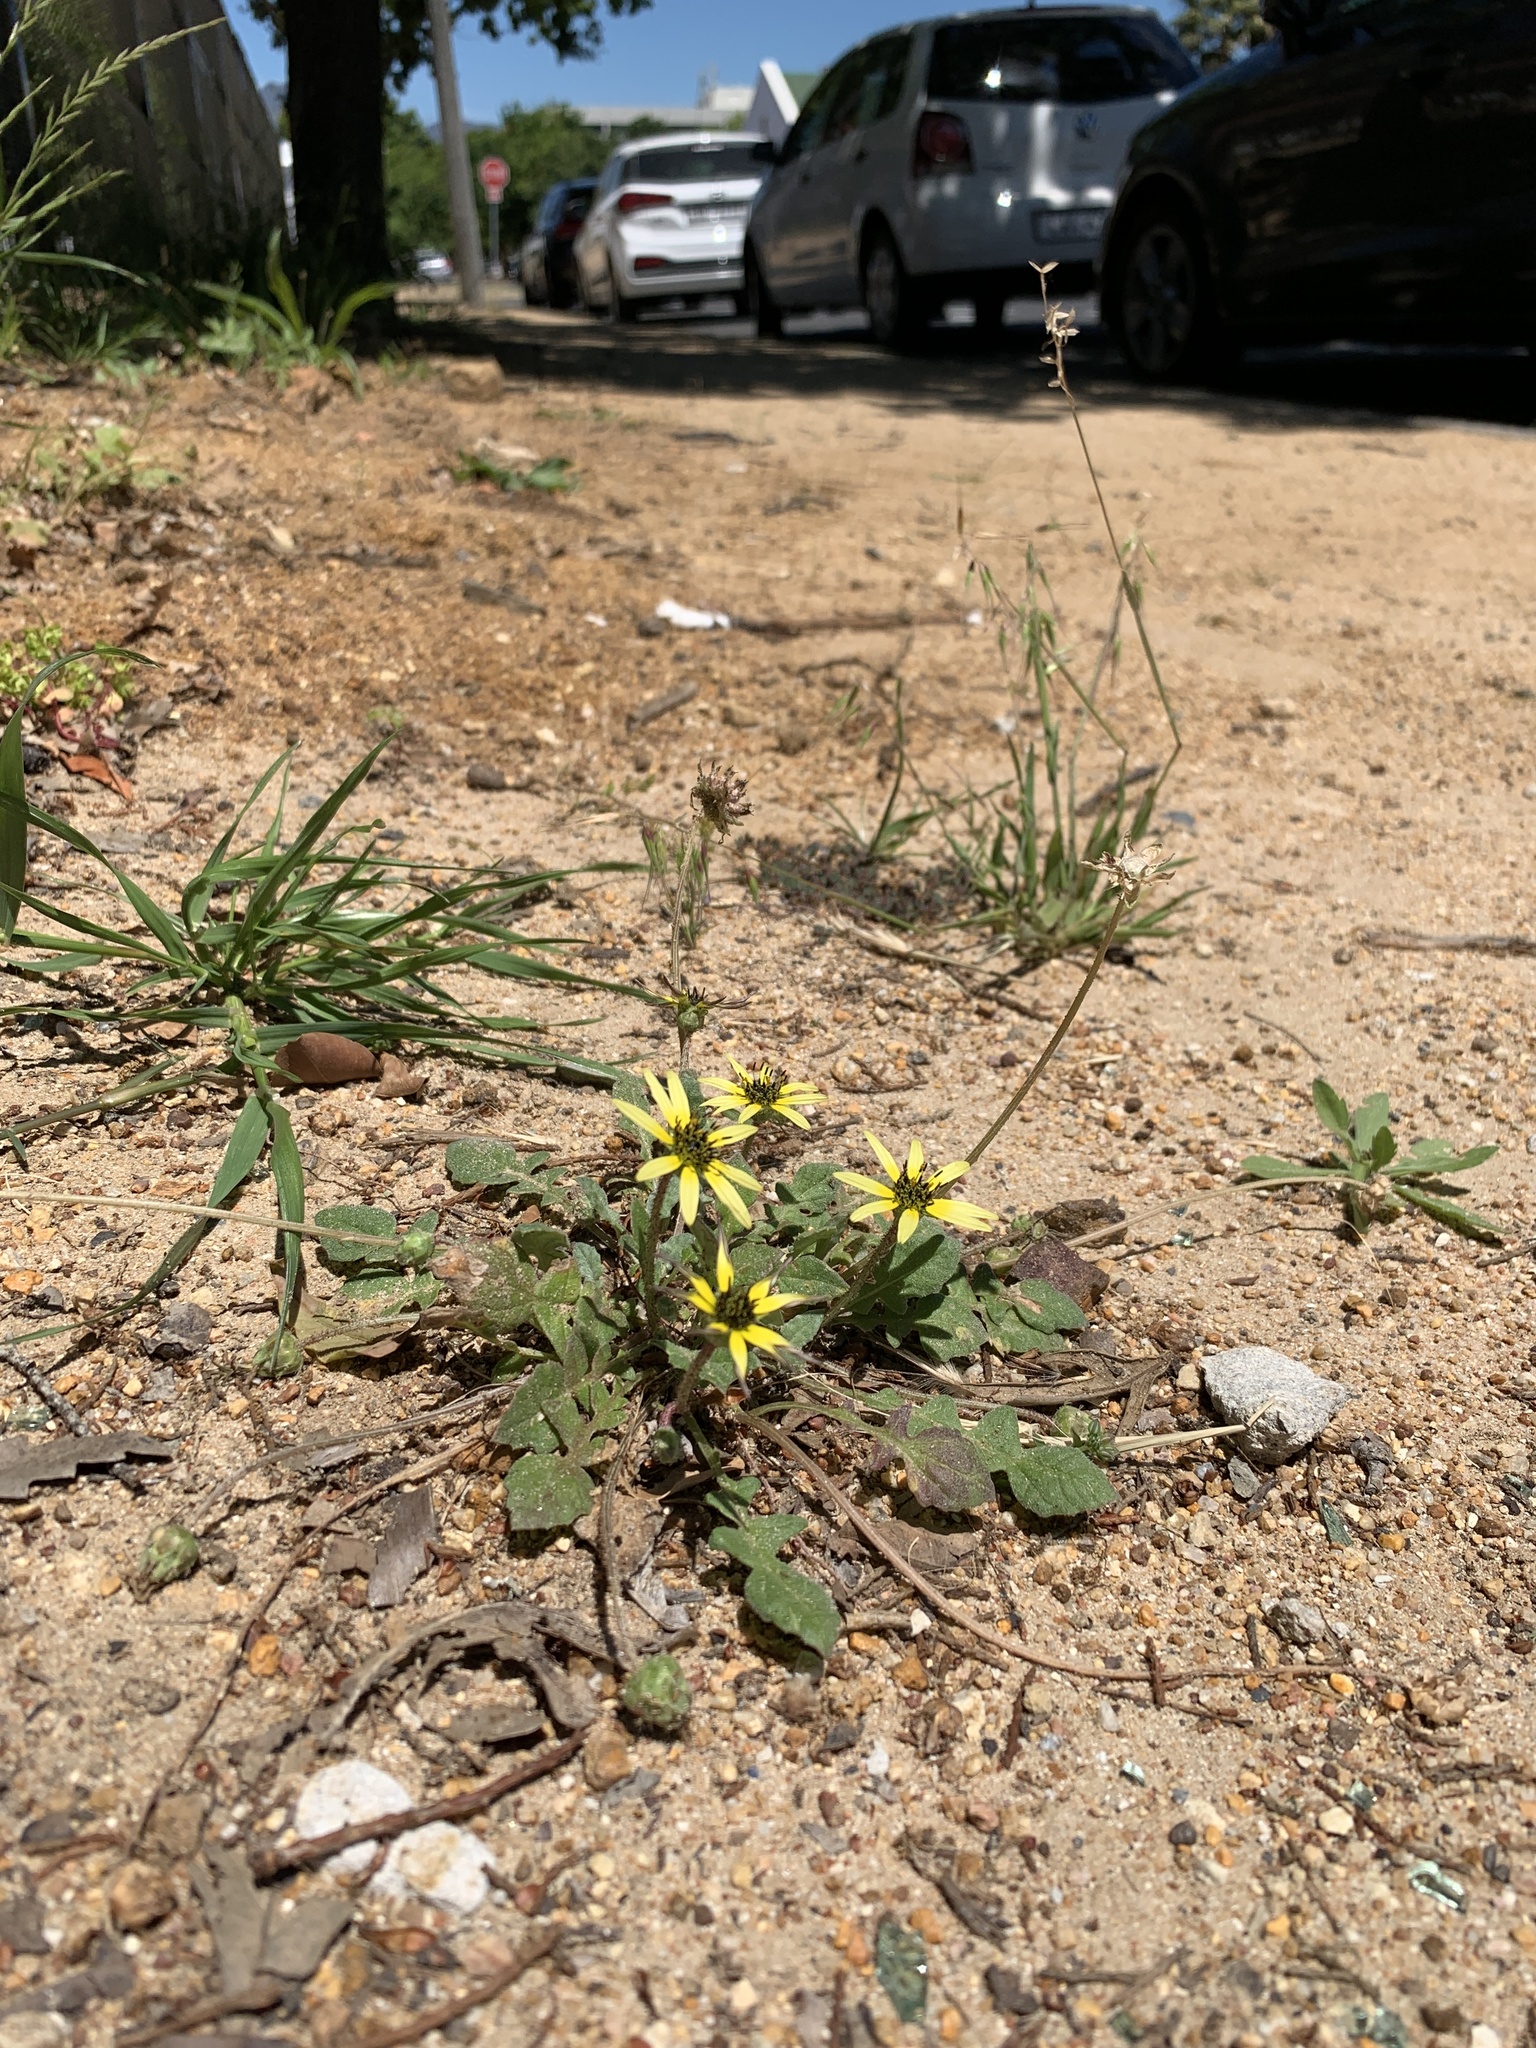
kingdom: Plantae
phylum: Tracheophyta
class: Magnoliopsida
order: Asterales
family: Asteraceae
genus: Arctotheca
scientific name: Arctotheca calendula
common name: Capeweed
